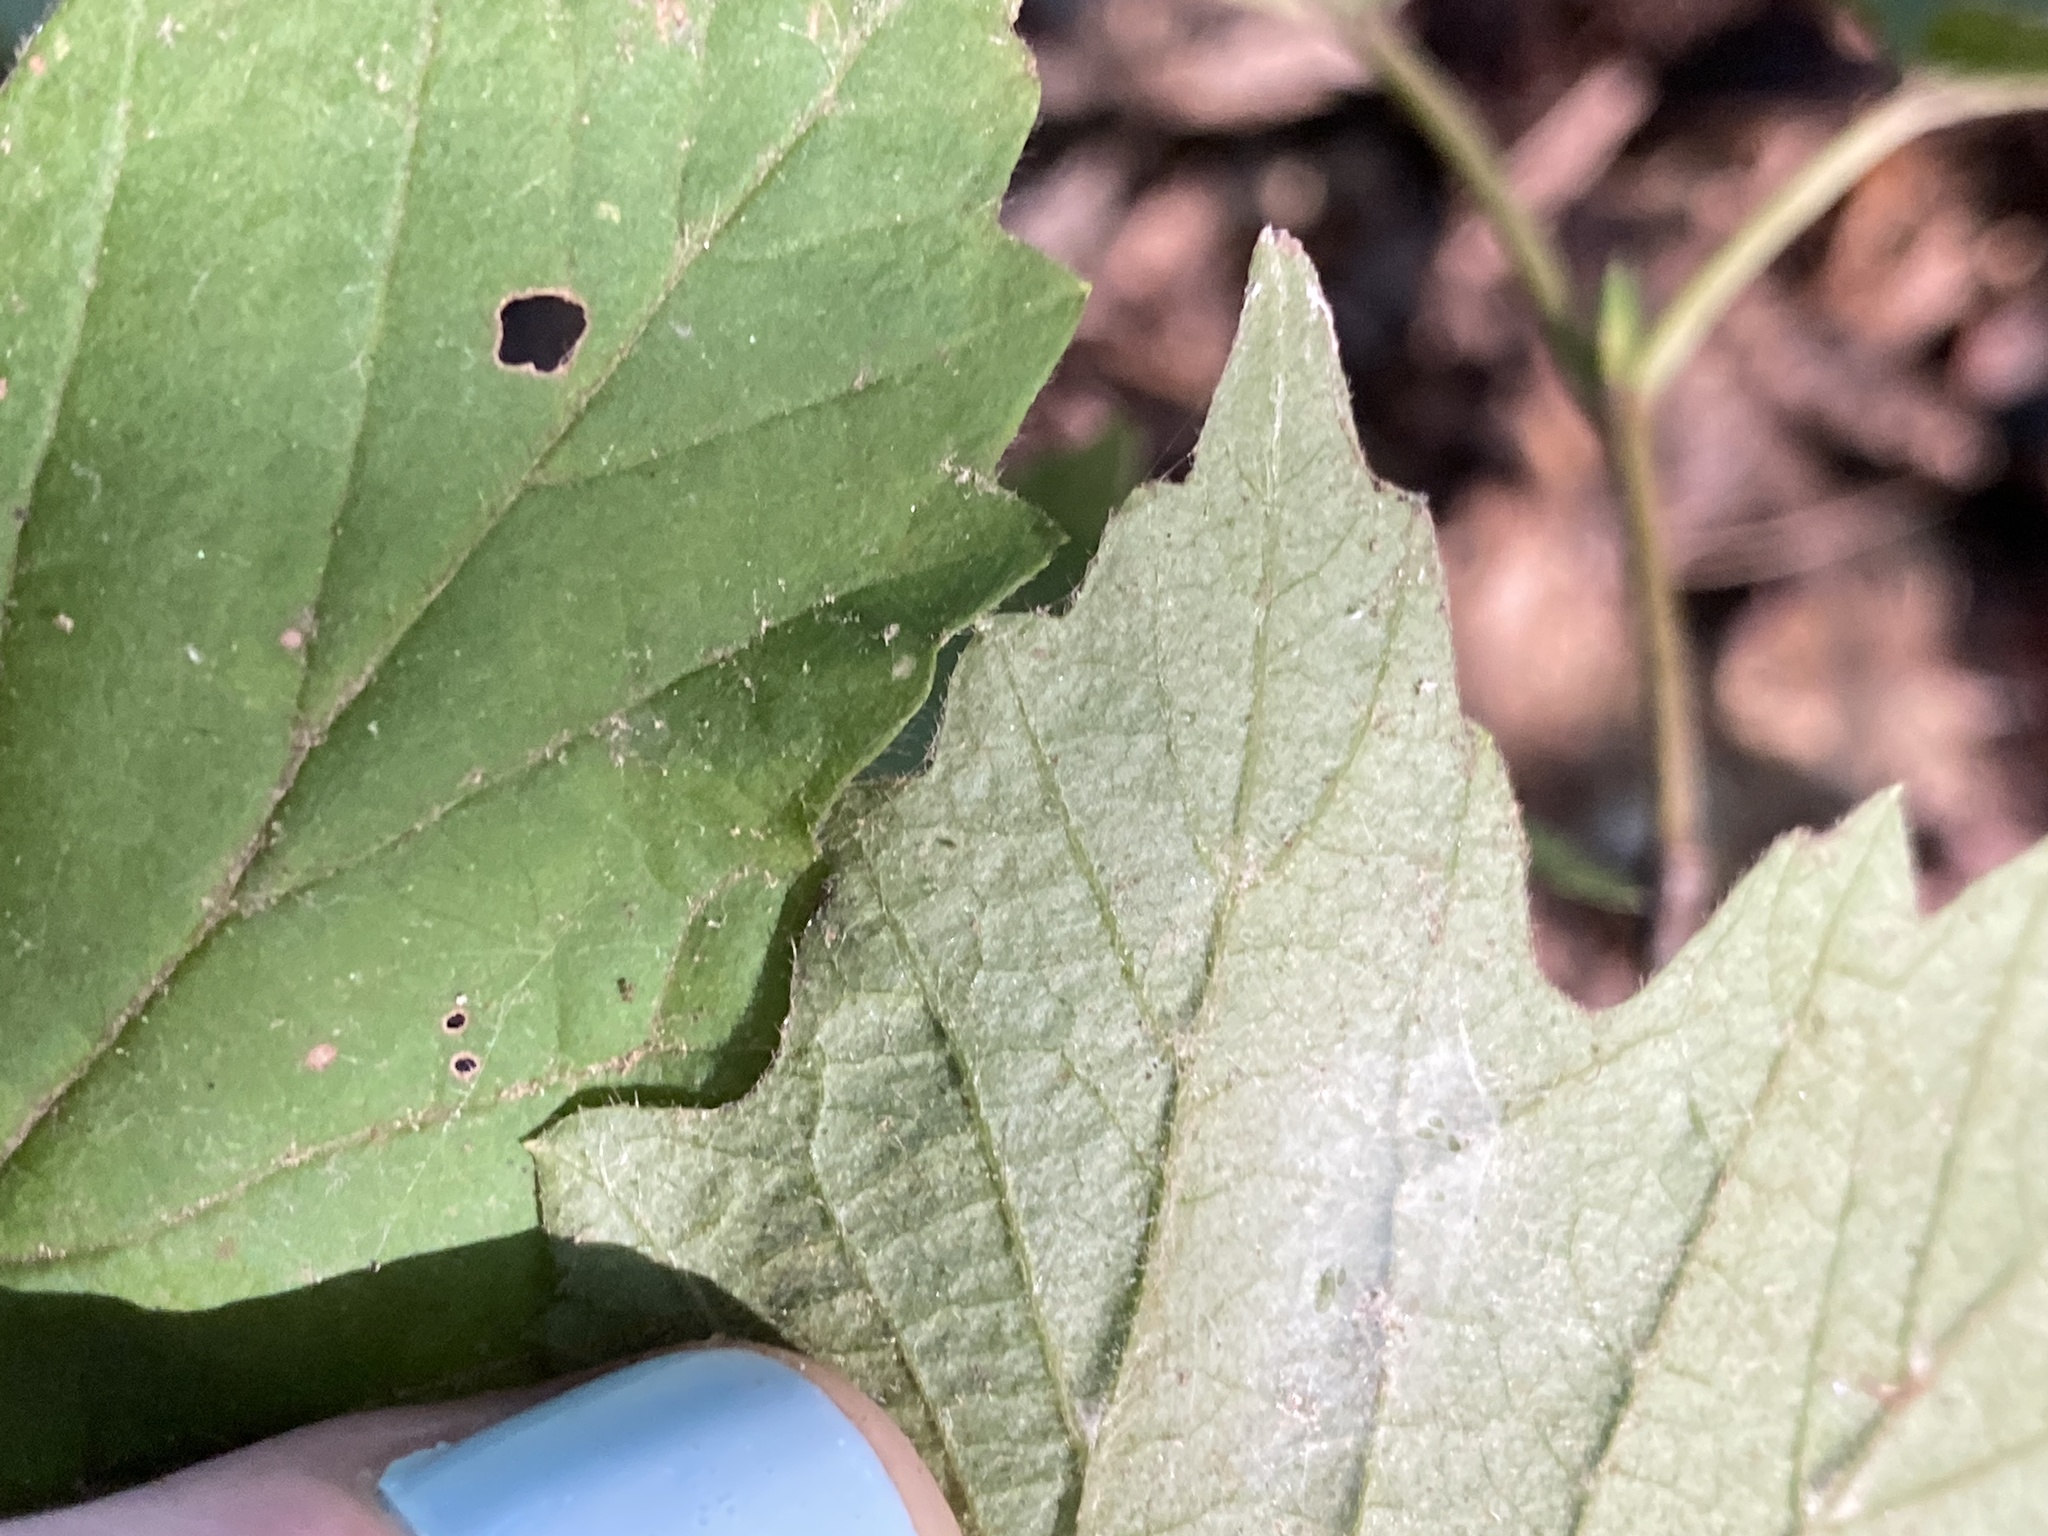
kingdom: Plantae
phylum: Tracheophyta
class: Magnoliopsida
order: Dipsacales
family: Viburnaceae
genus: Viburnum
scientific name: Viburnum acerifolium
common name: Dockmackie
